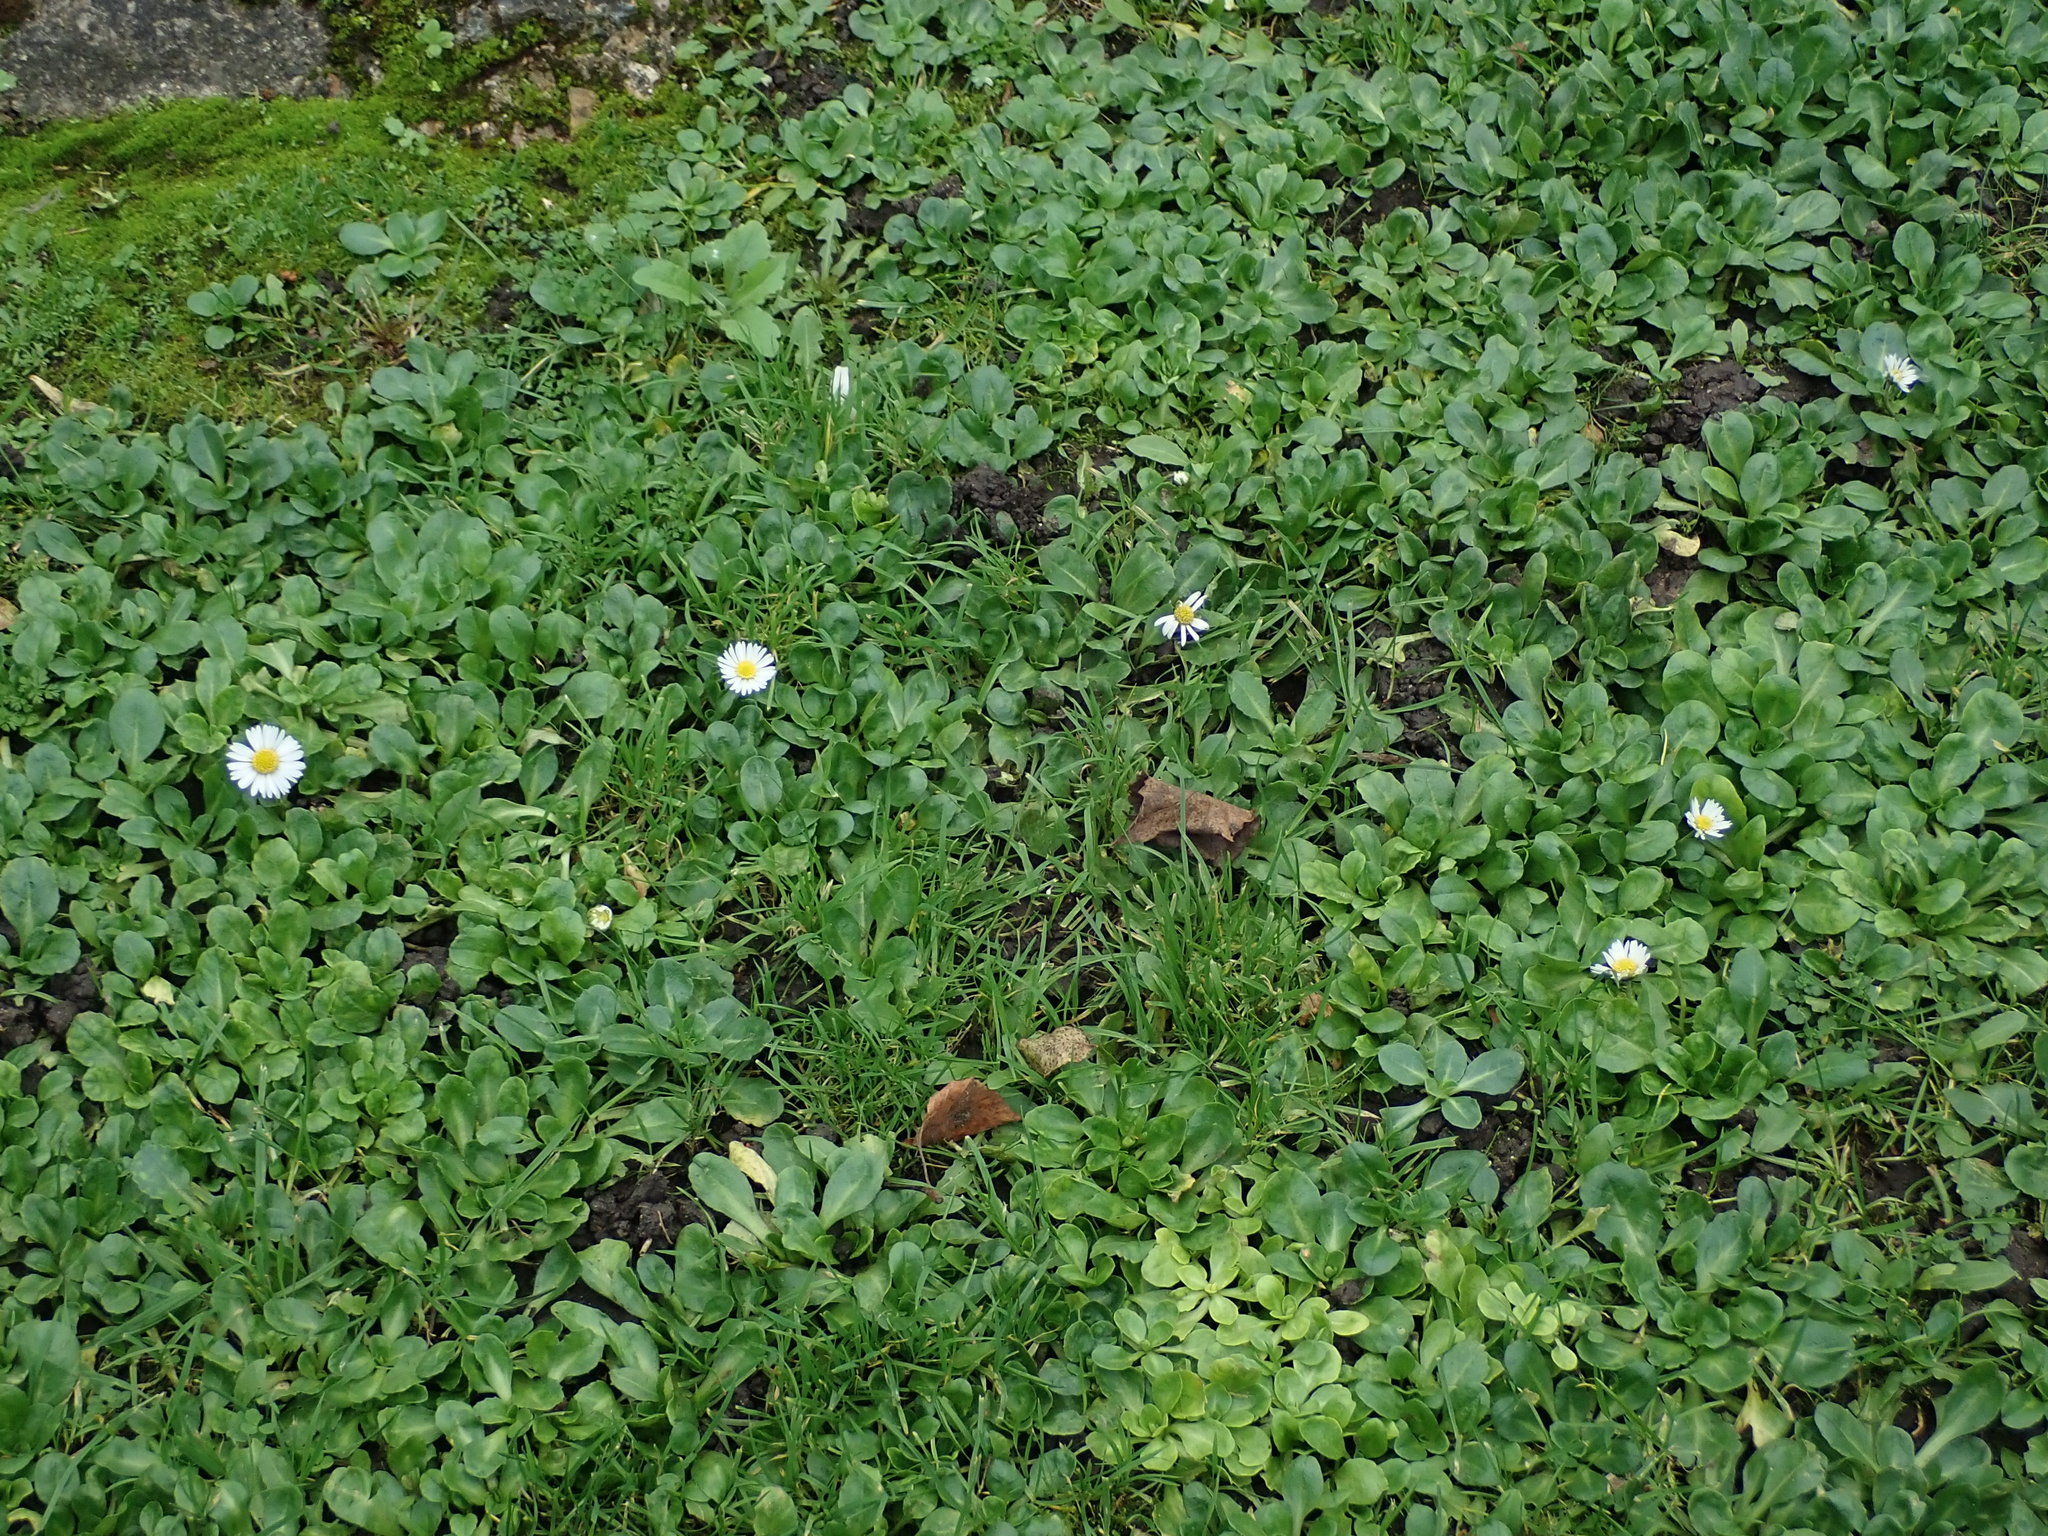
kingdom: Plantae
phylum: Tracheophyta
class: Magnoliopsida
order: Asterales
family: Asteraceae
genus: Bellis
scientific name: Bellis perennis
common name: Lawndaisy
